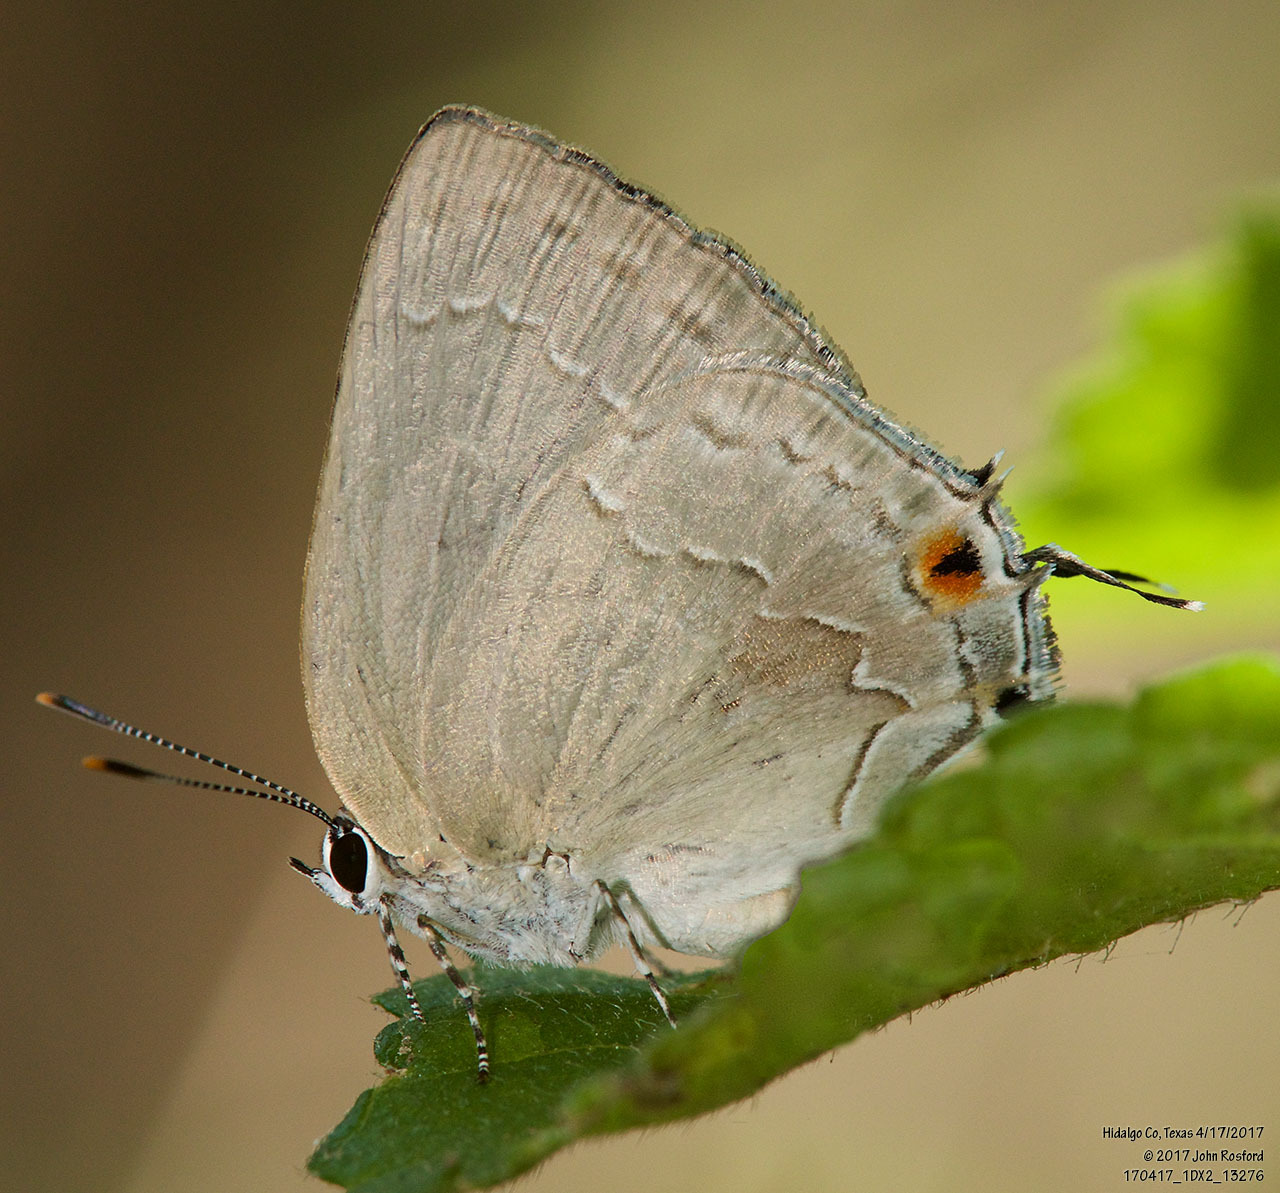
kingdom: Animalia
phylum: Arthropoda
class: Insecta
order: Lepidoptera
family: Lycaenidae
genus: Strephonota
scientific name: Strephonota tephraeus
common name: Pearly-gray hairstreak
